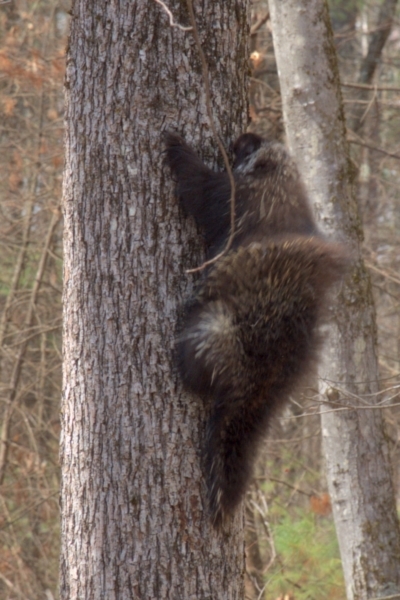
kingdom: Animalia
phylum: Chordata
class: Mammalia
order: Rodentia
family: Erethizontidae
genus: Erethizon
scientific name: Erethizon dorsatus
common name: North american porcupine
